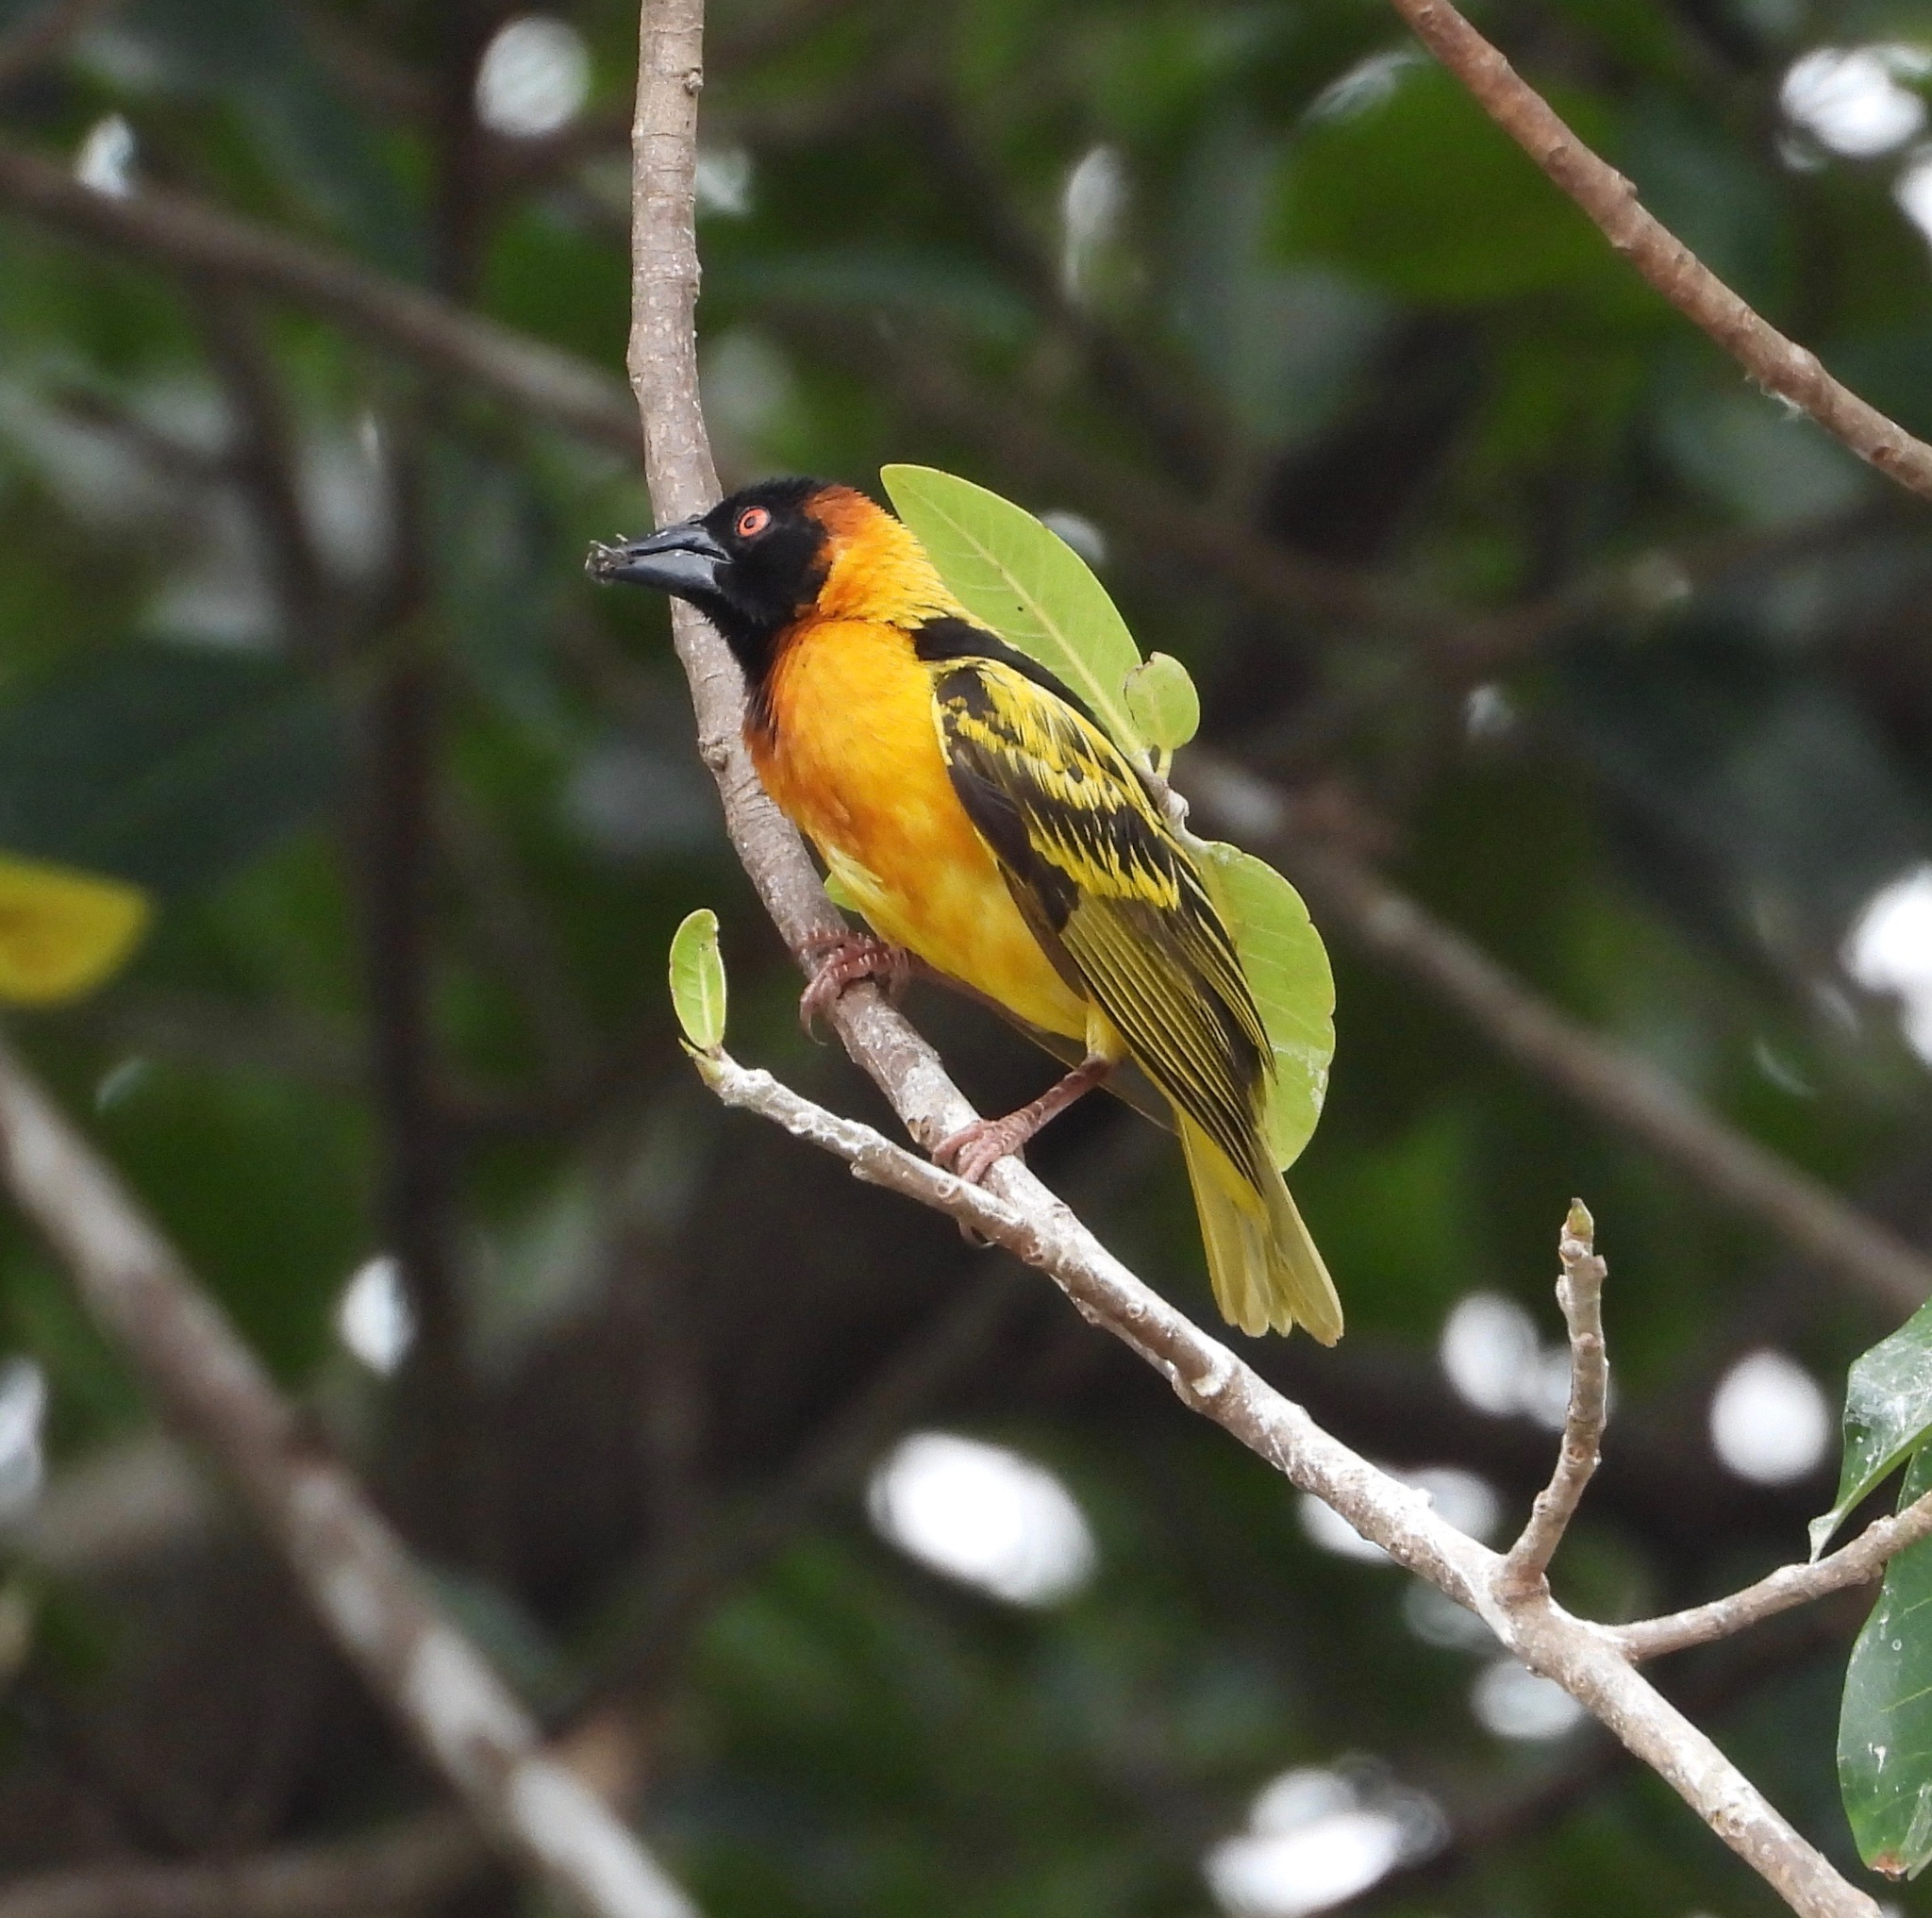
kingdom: Animalia
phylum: Chordata
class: Aves
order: Passeriformes
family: Ploceidae
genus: Ploceus
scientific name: Ploceus cucullatus
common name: Village weaver
